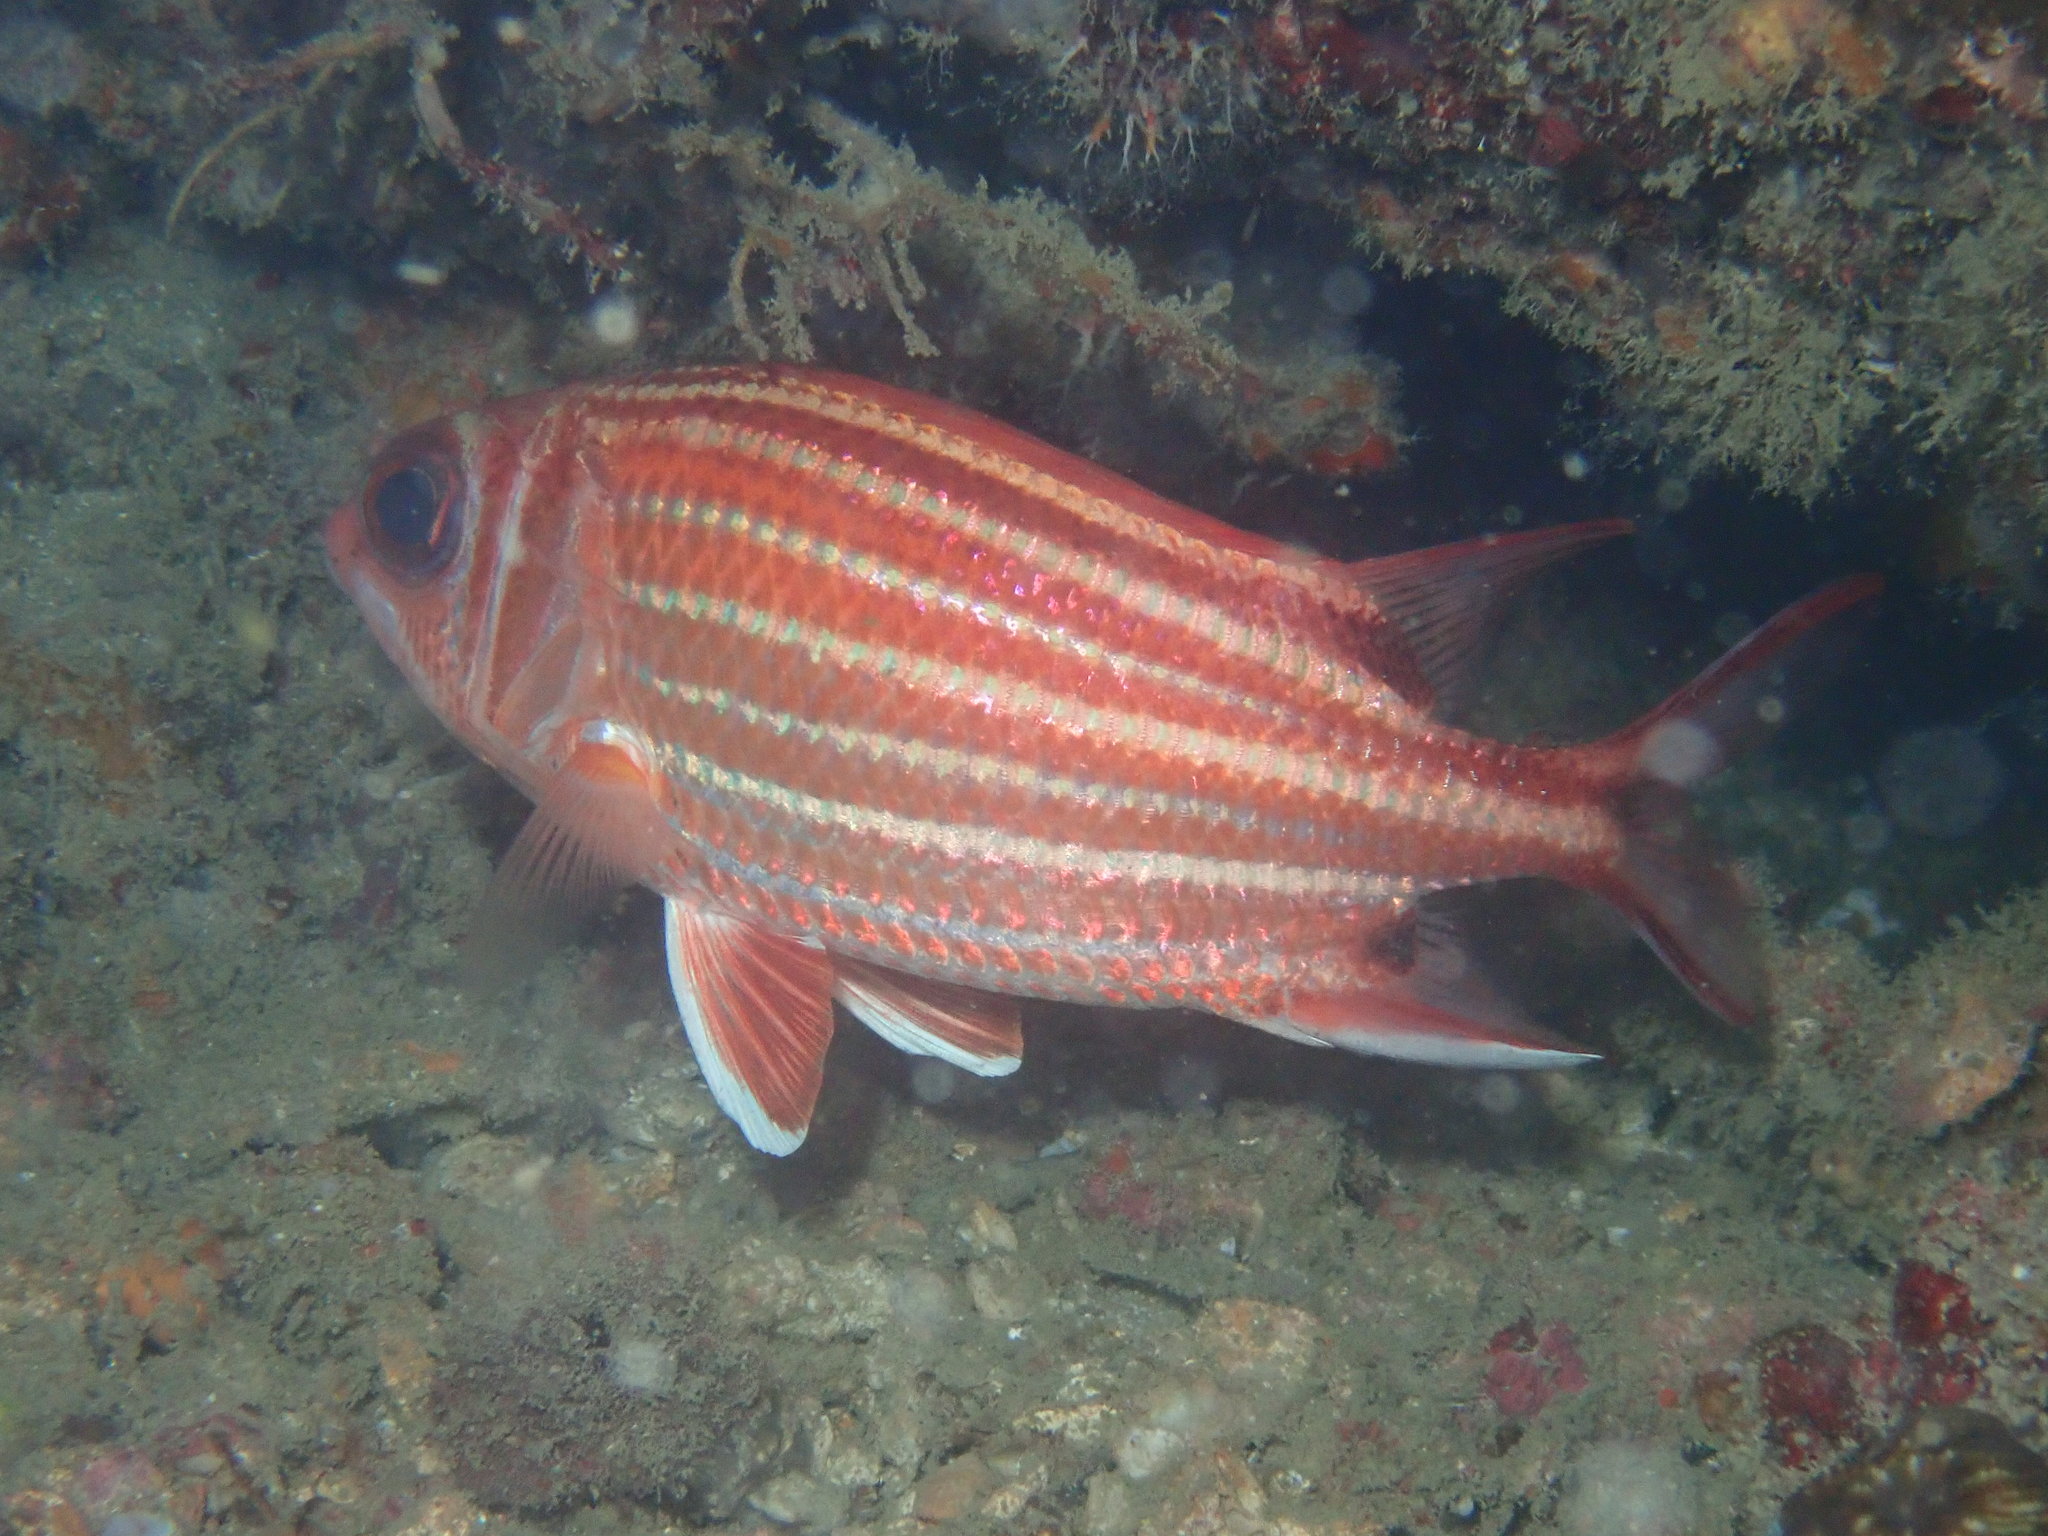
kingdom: Animalia
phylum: Chordata
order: Beryciformes
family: Holocentridae
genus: Sargocentron
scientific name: Sargocentron rubrum
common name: Redcoat
